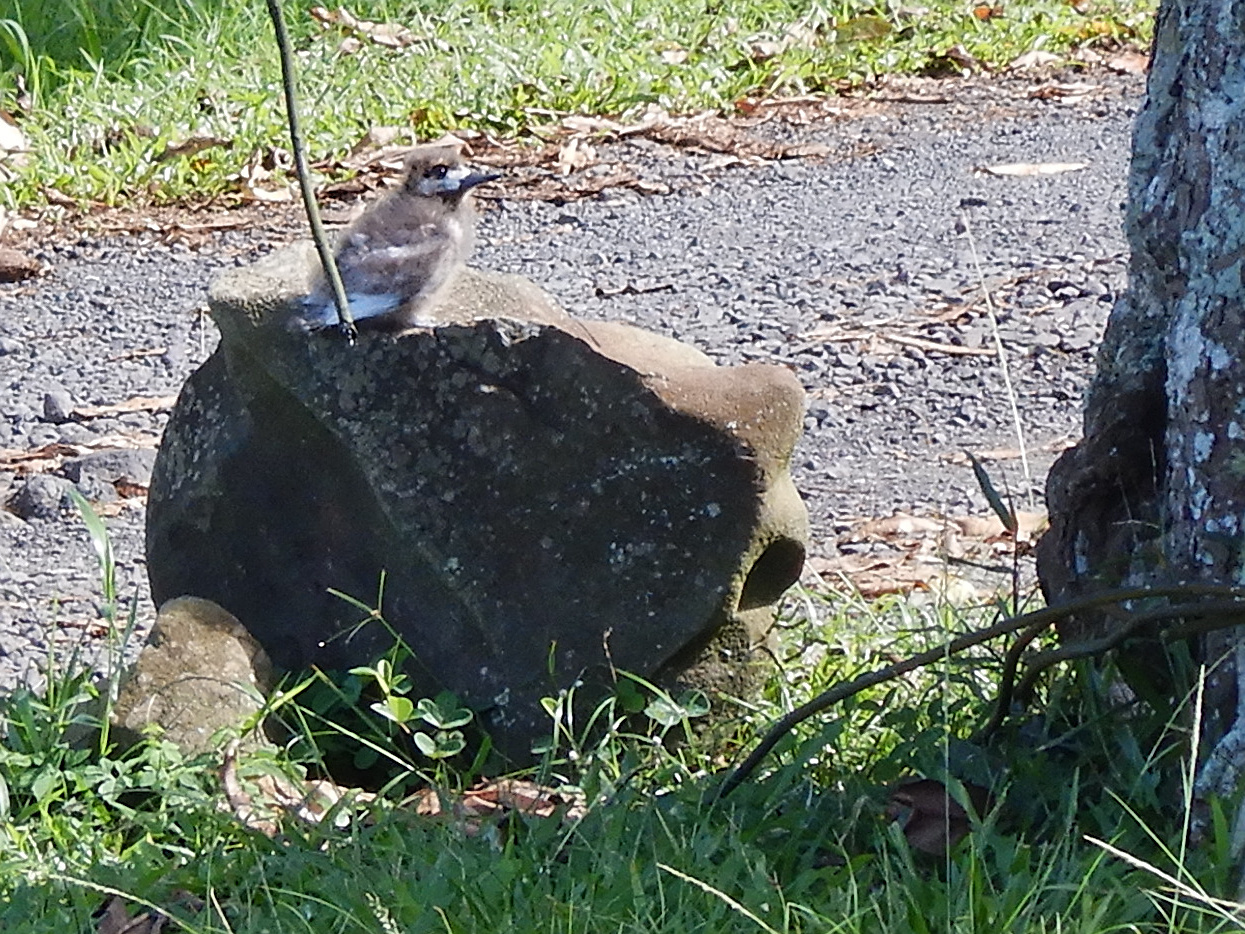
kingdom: Animalia
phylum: Chordata
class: Aves
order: Charadriiformes
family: Laridae
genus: Gygis
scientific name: Gygis alba
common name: White tern
